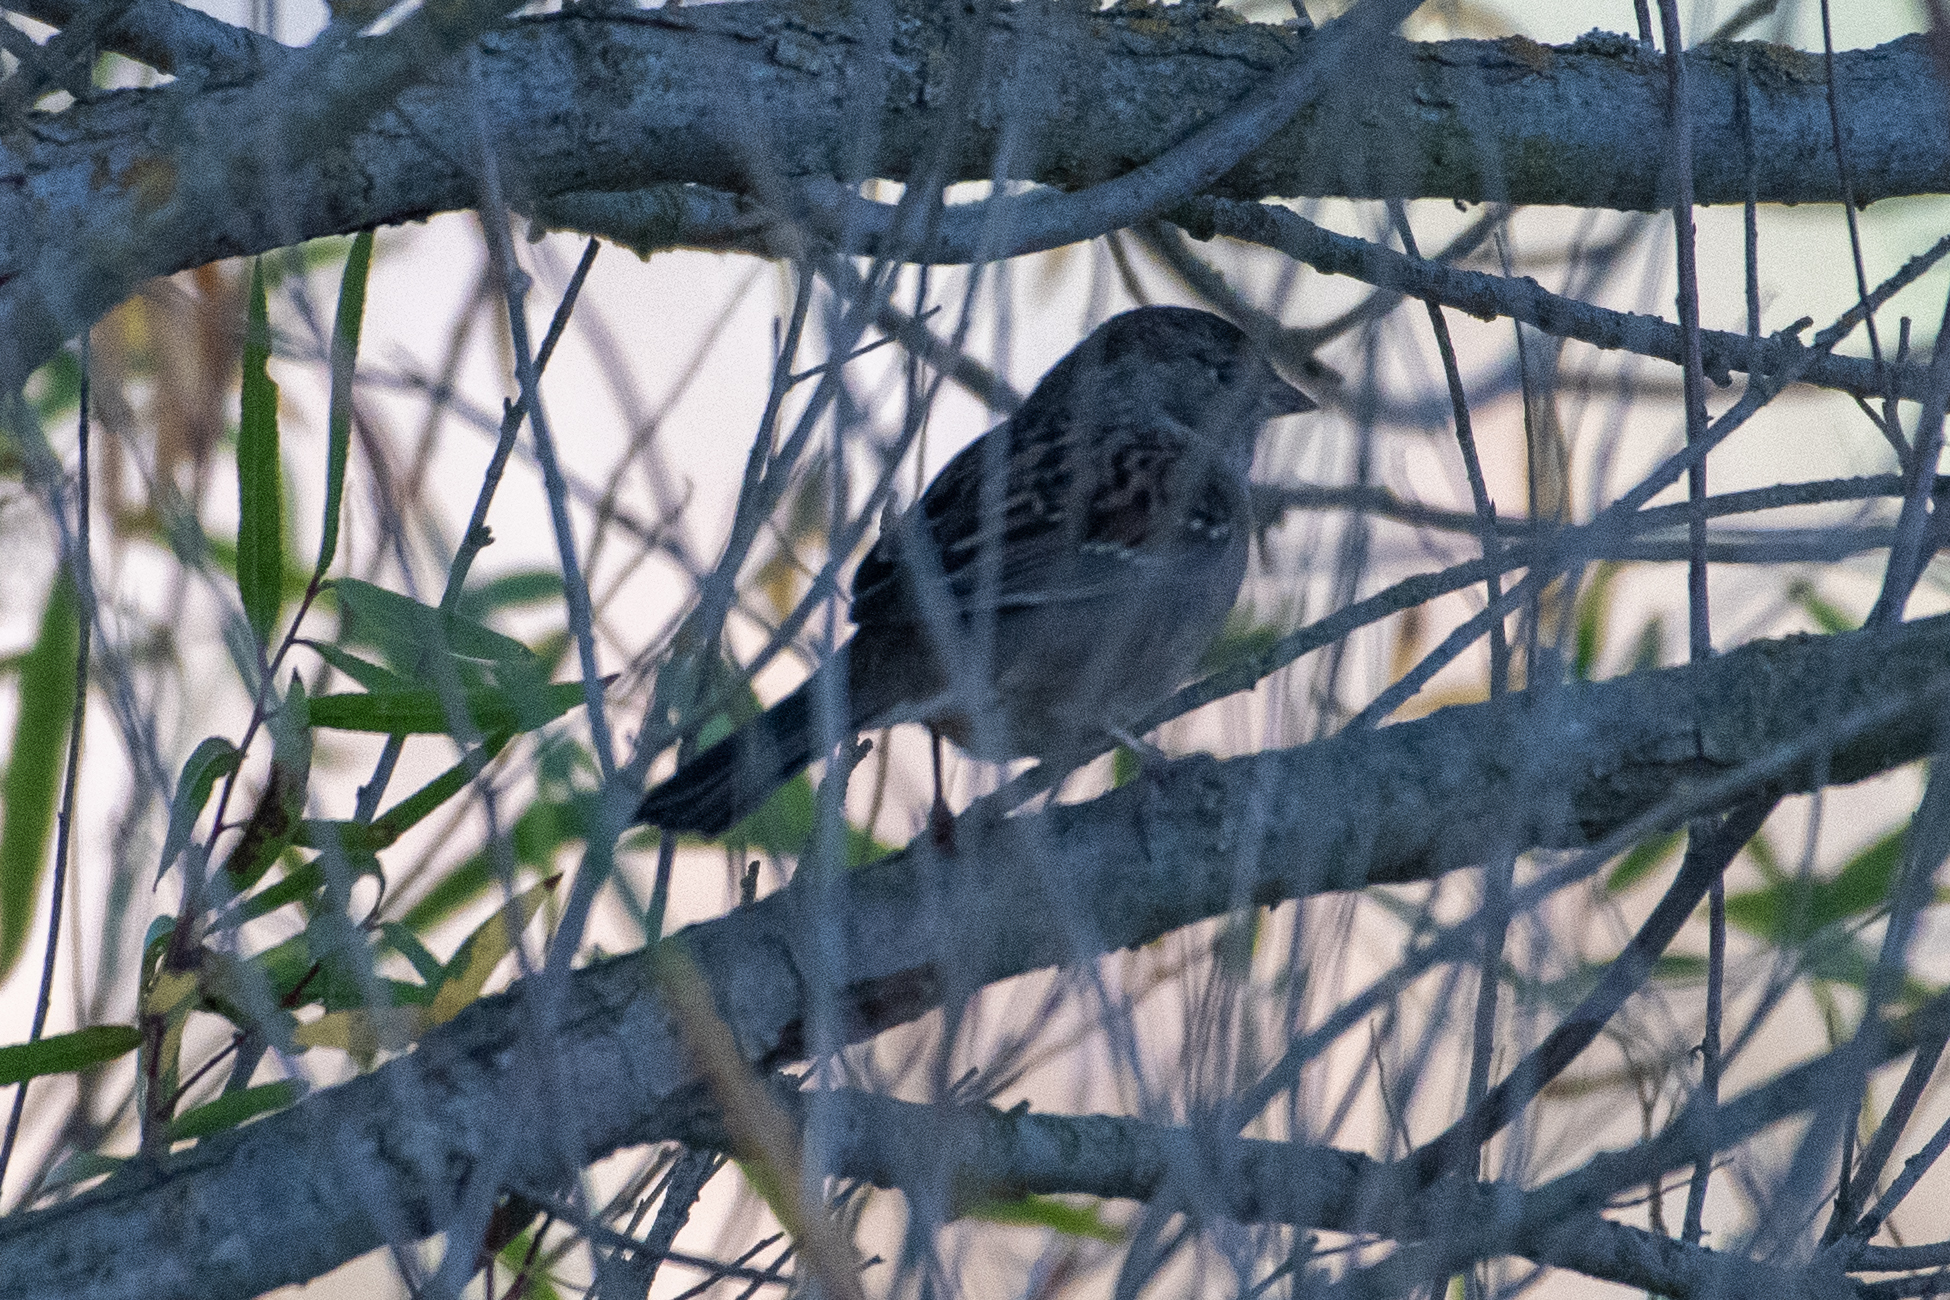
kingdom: Animalia
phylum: Chordata
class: Aves
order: Passeriformes
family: Passerellidae
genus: Zonotrichia
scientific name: Zonotrichia atricapilla
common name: Golden-crowned sparrow
